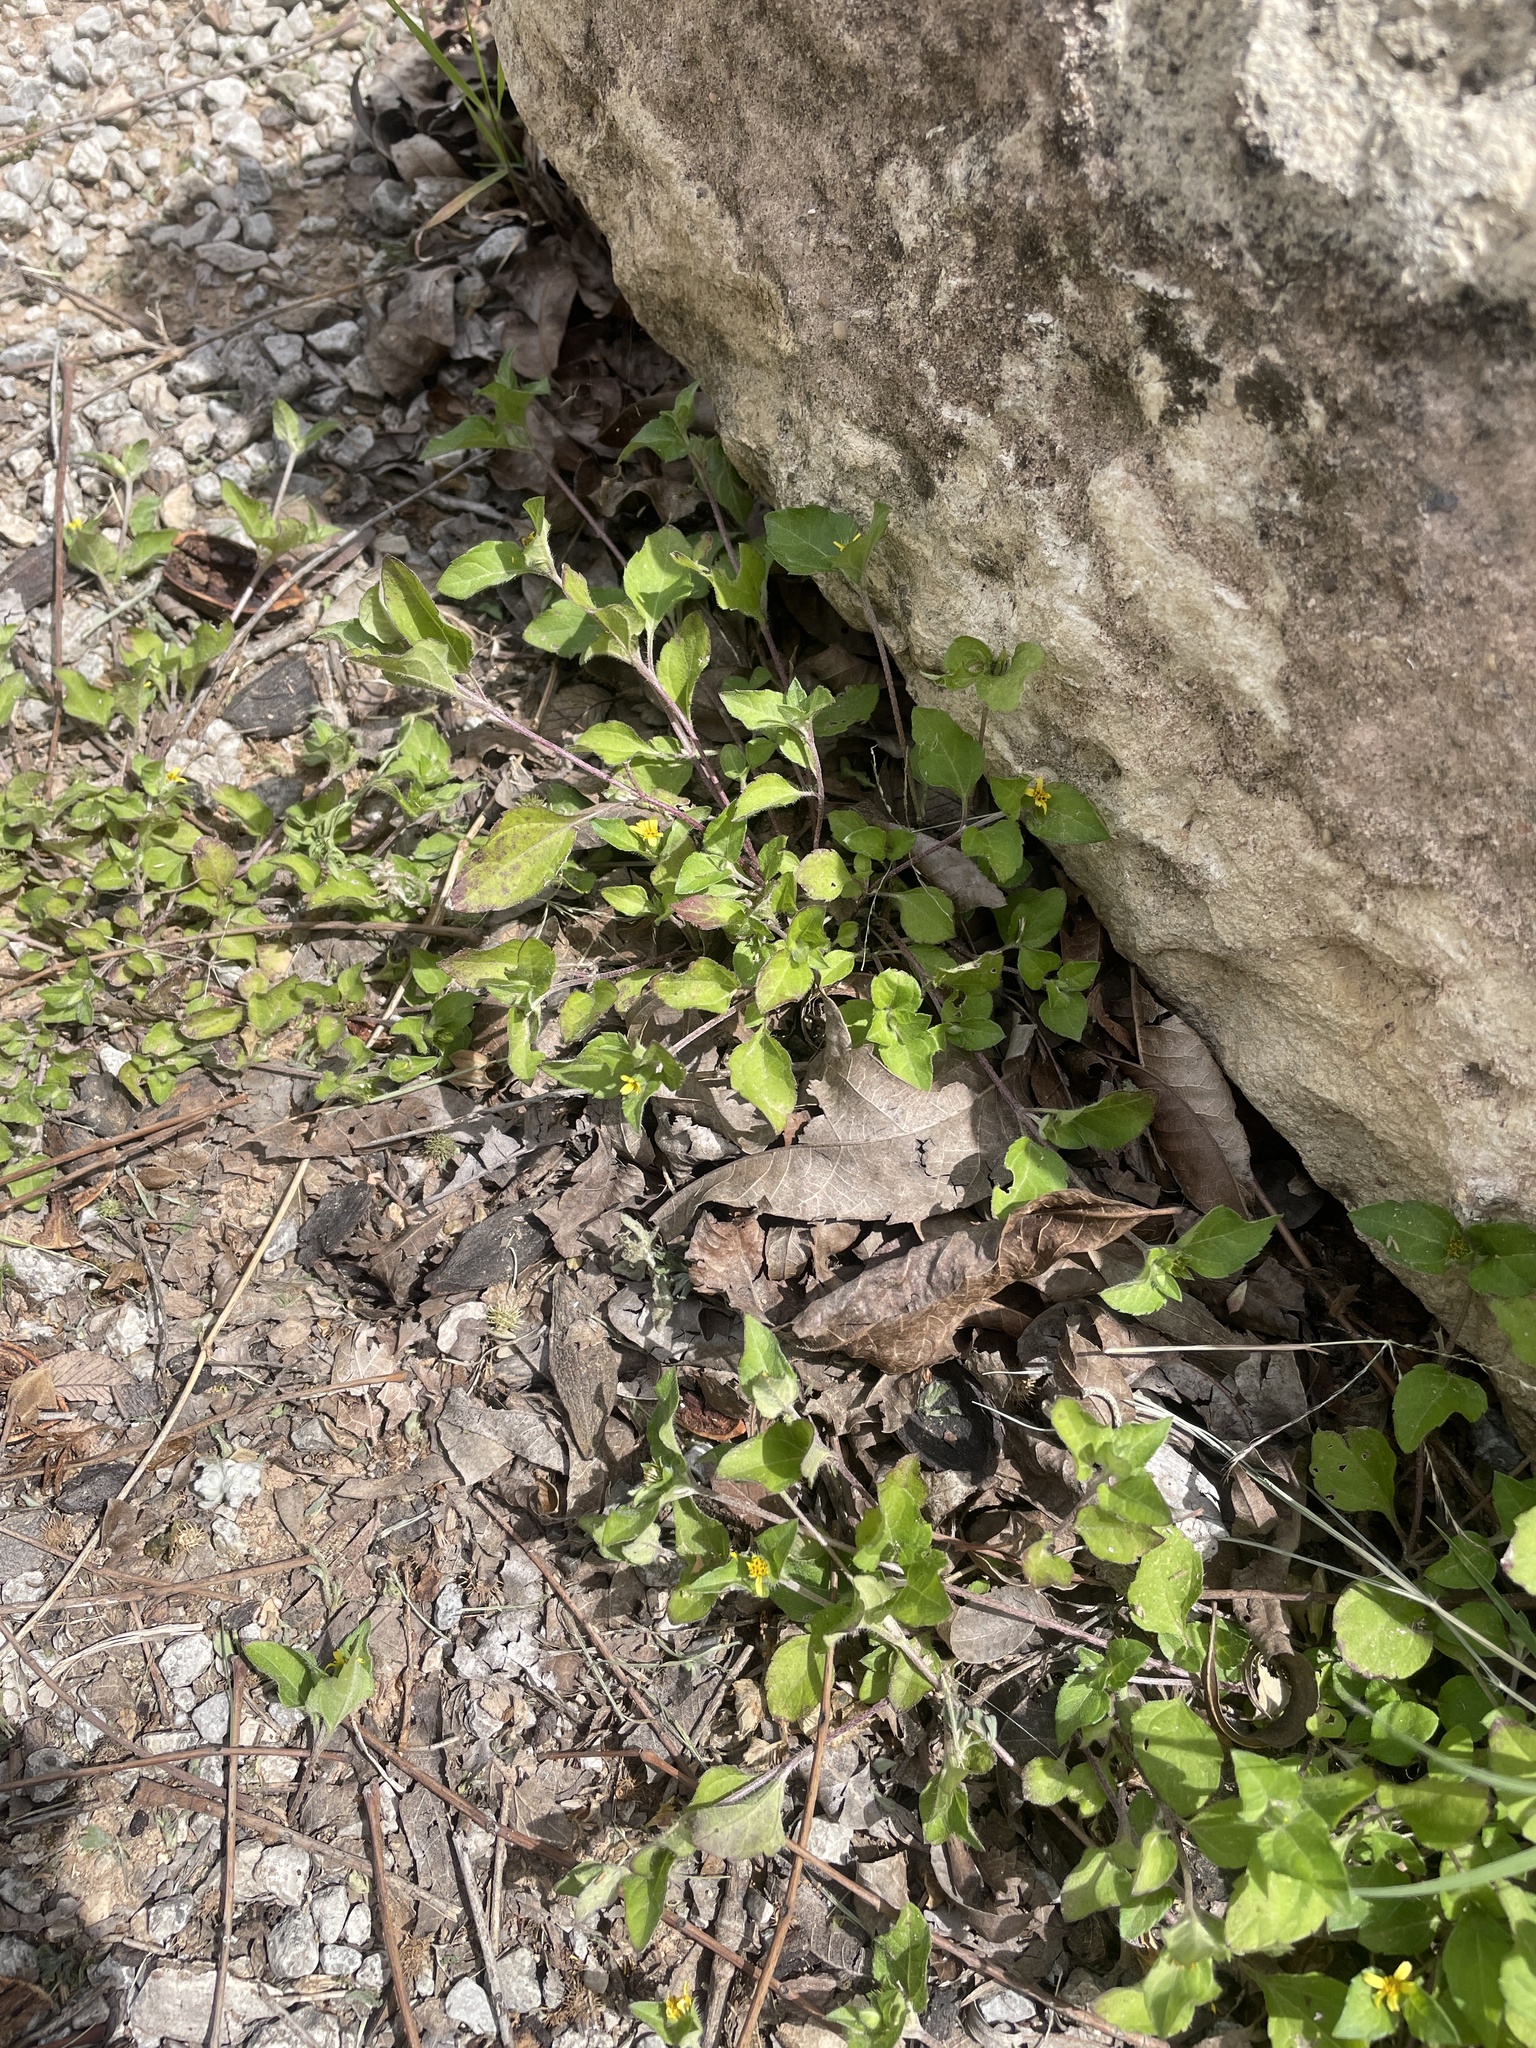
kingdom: Plantae
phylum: Tracheophyta
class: Magnoliopsida
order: Asterales
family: Asteraceae
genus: Calyptocarpus
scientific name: Calyptocarpus vialis
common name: Straggler daisy
